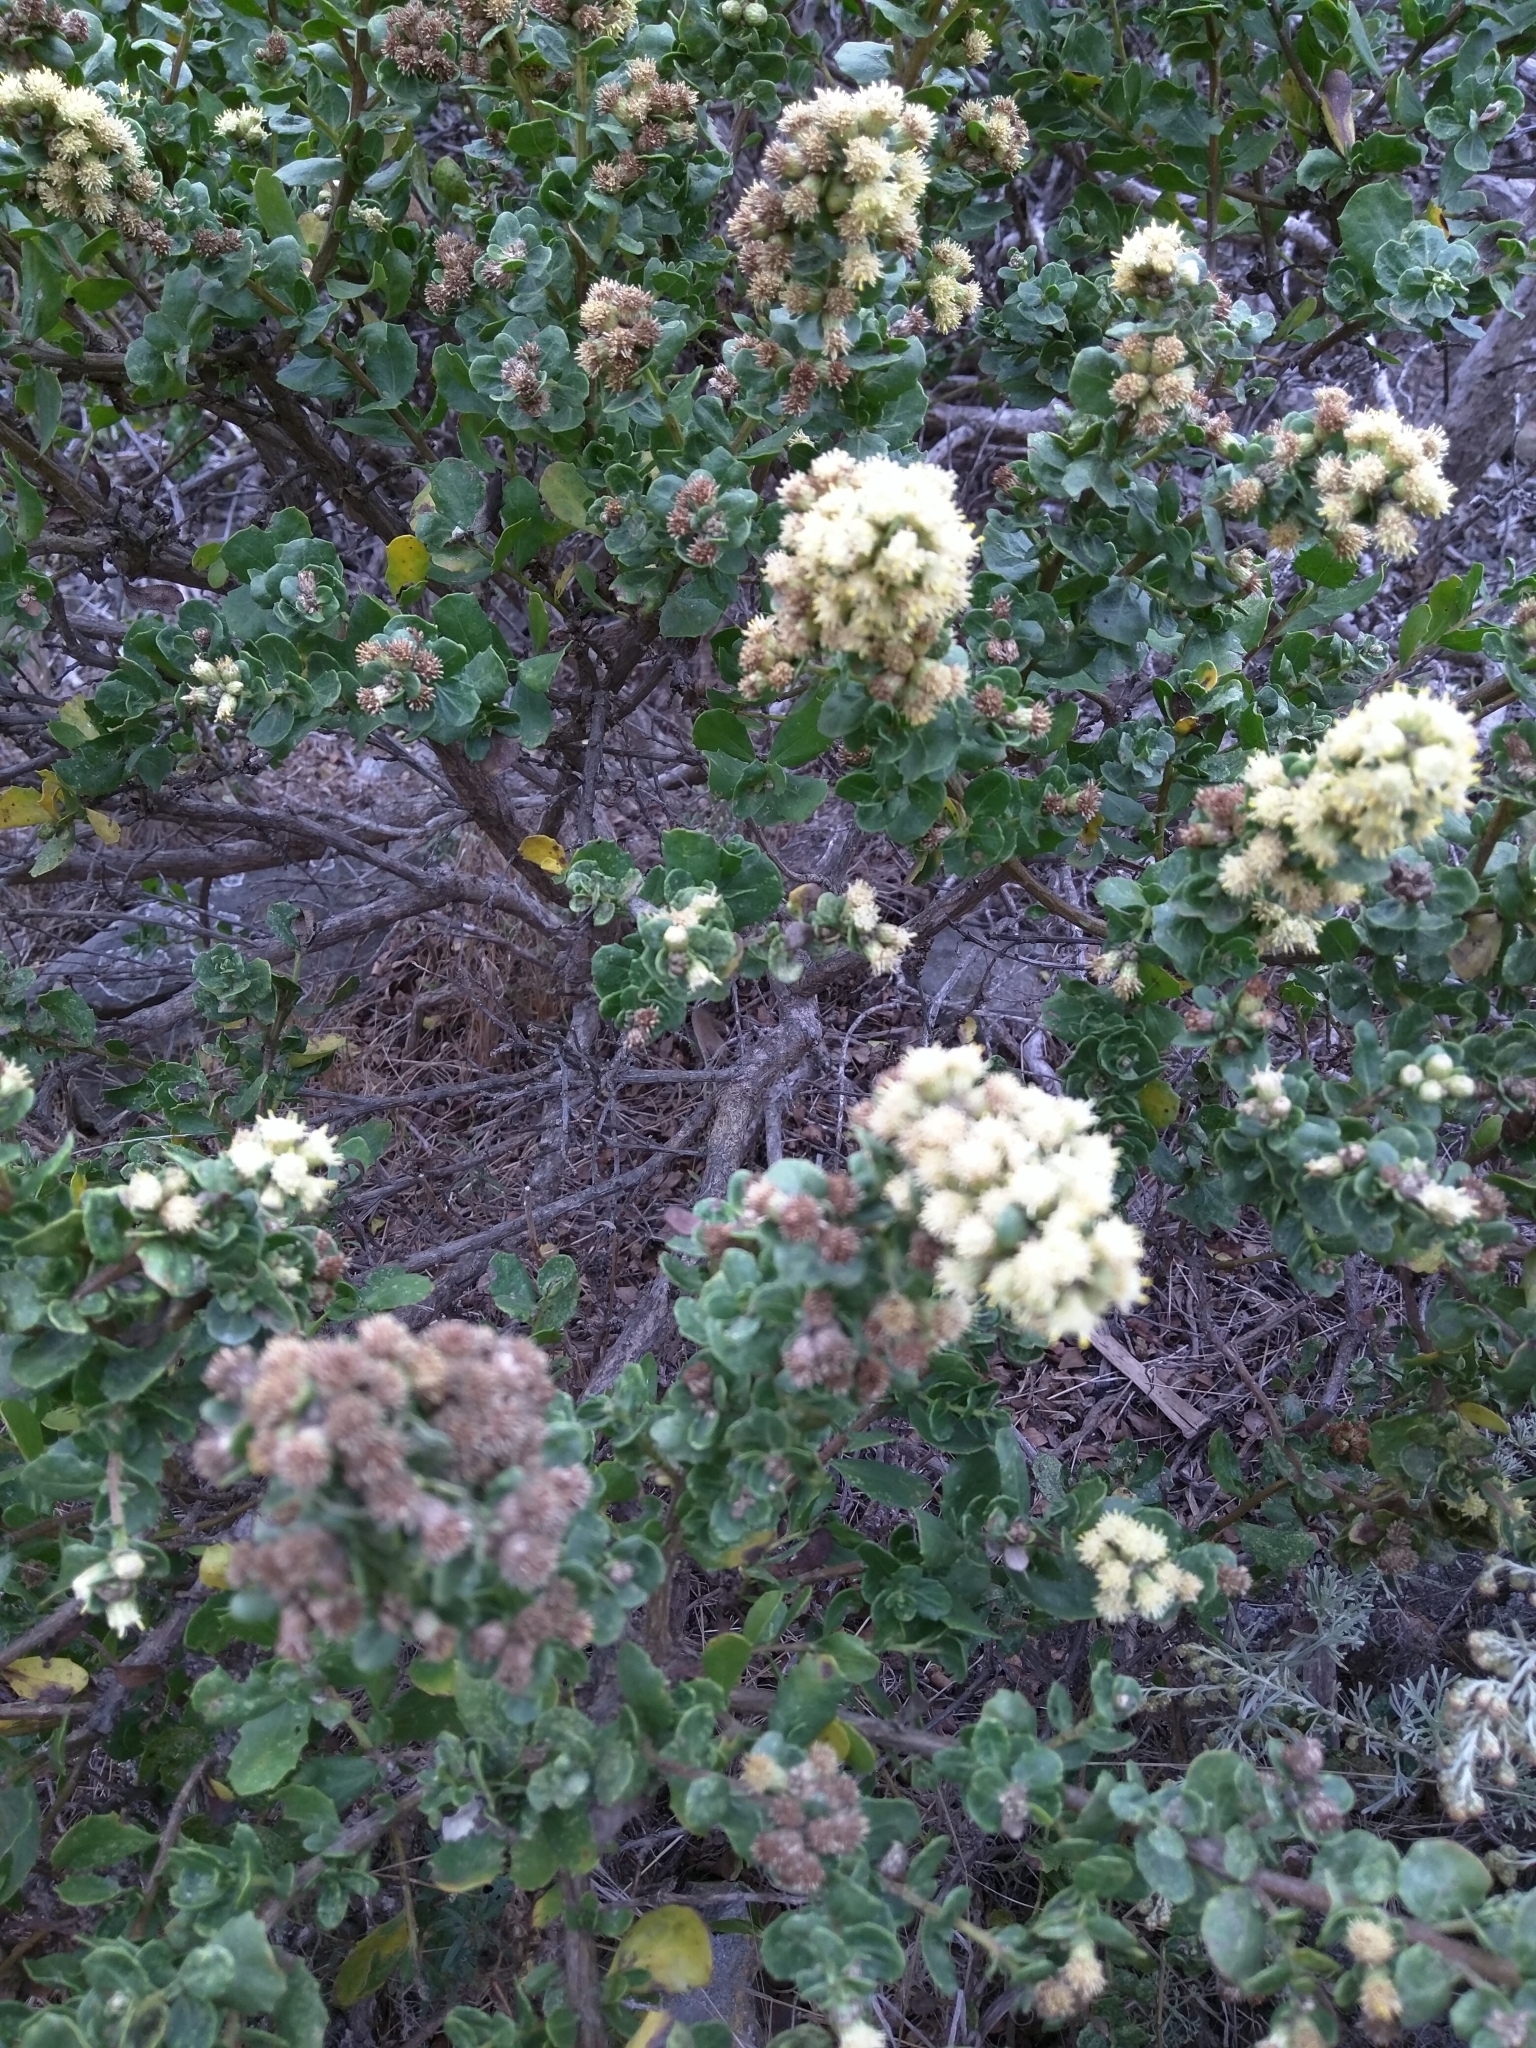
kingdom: Plantae
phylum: Tracheophyta
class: Magnoliopsida
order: Asterales
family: Asteraceae
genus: Baccharis
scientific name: Baccharis pilularis
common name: Coyotebrush
